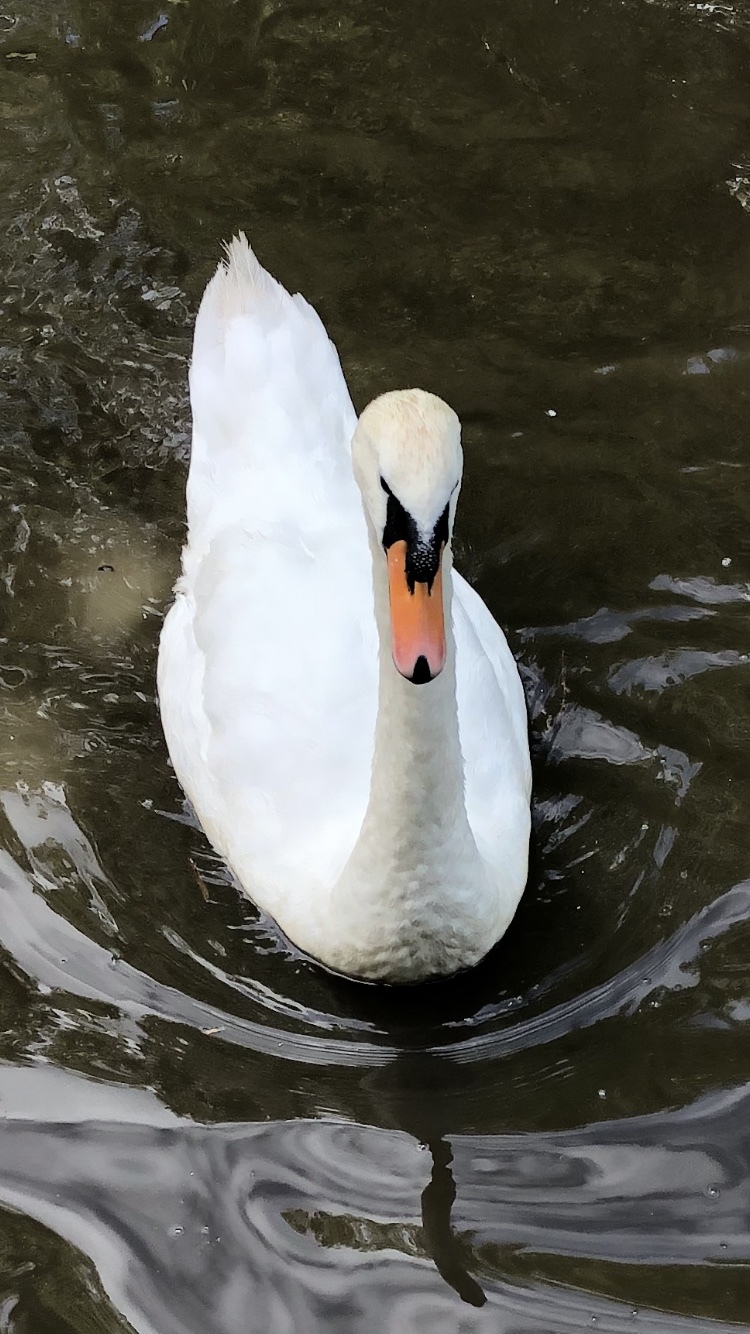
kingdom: Animalia
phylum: Chordata
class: Aves
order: Anseriformes
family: Anatidae
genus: Cygnus
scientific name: Cygnus olor
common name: Mute swan
